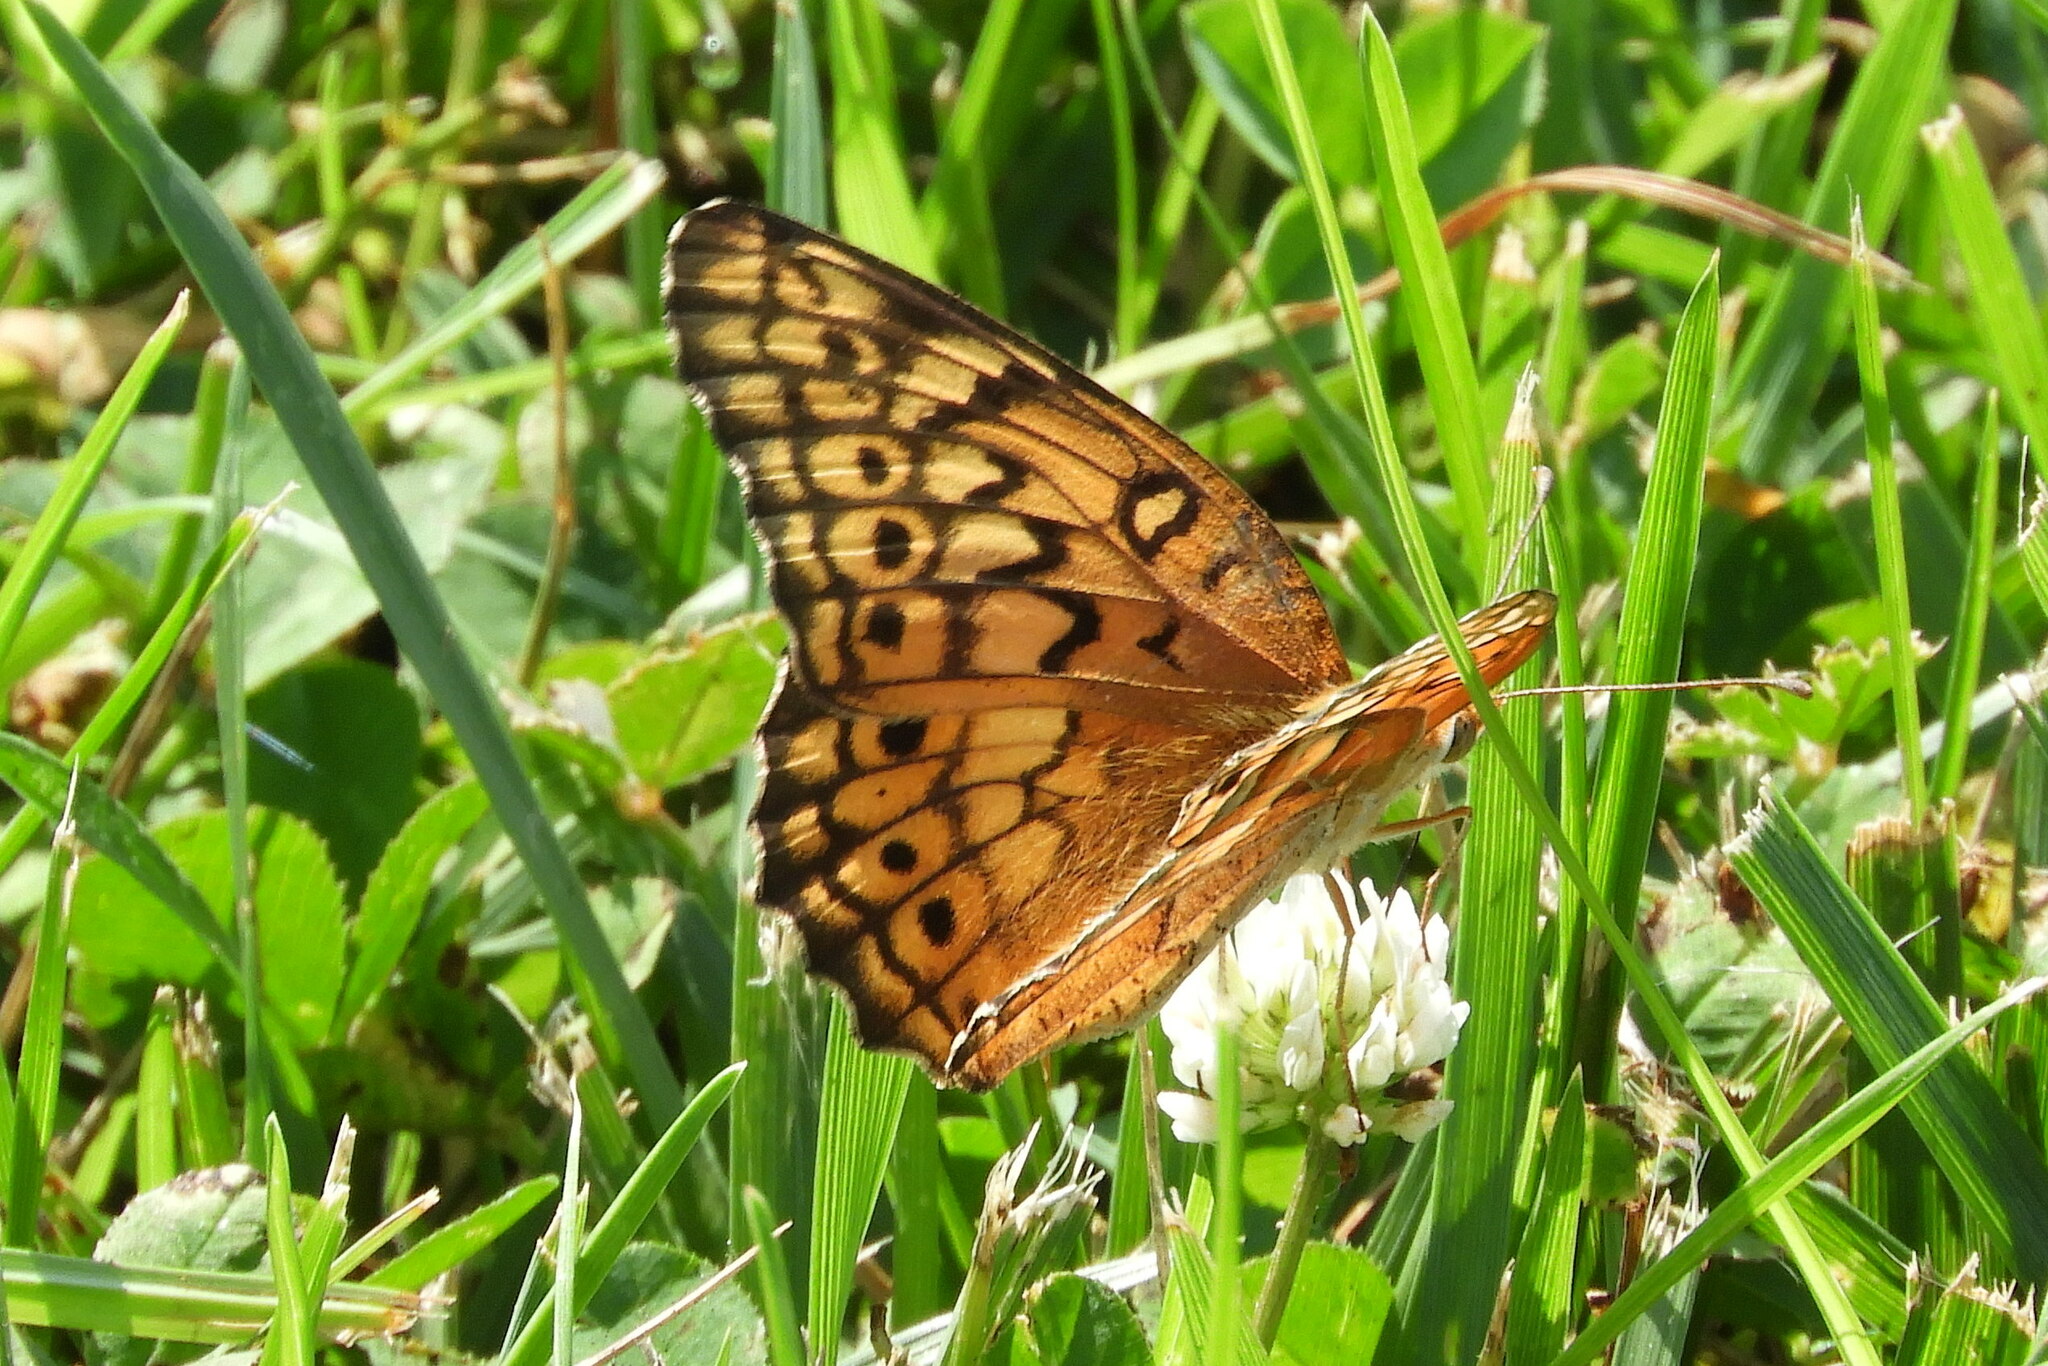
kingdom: Animalia
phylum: Arthropoda
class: Insecta
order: Lepidoptera
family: Nymphalidae
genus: Euptoieta
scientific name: Euptoieta claudia
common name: Variegated fritillary
